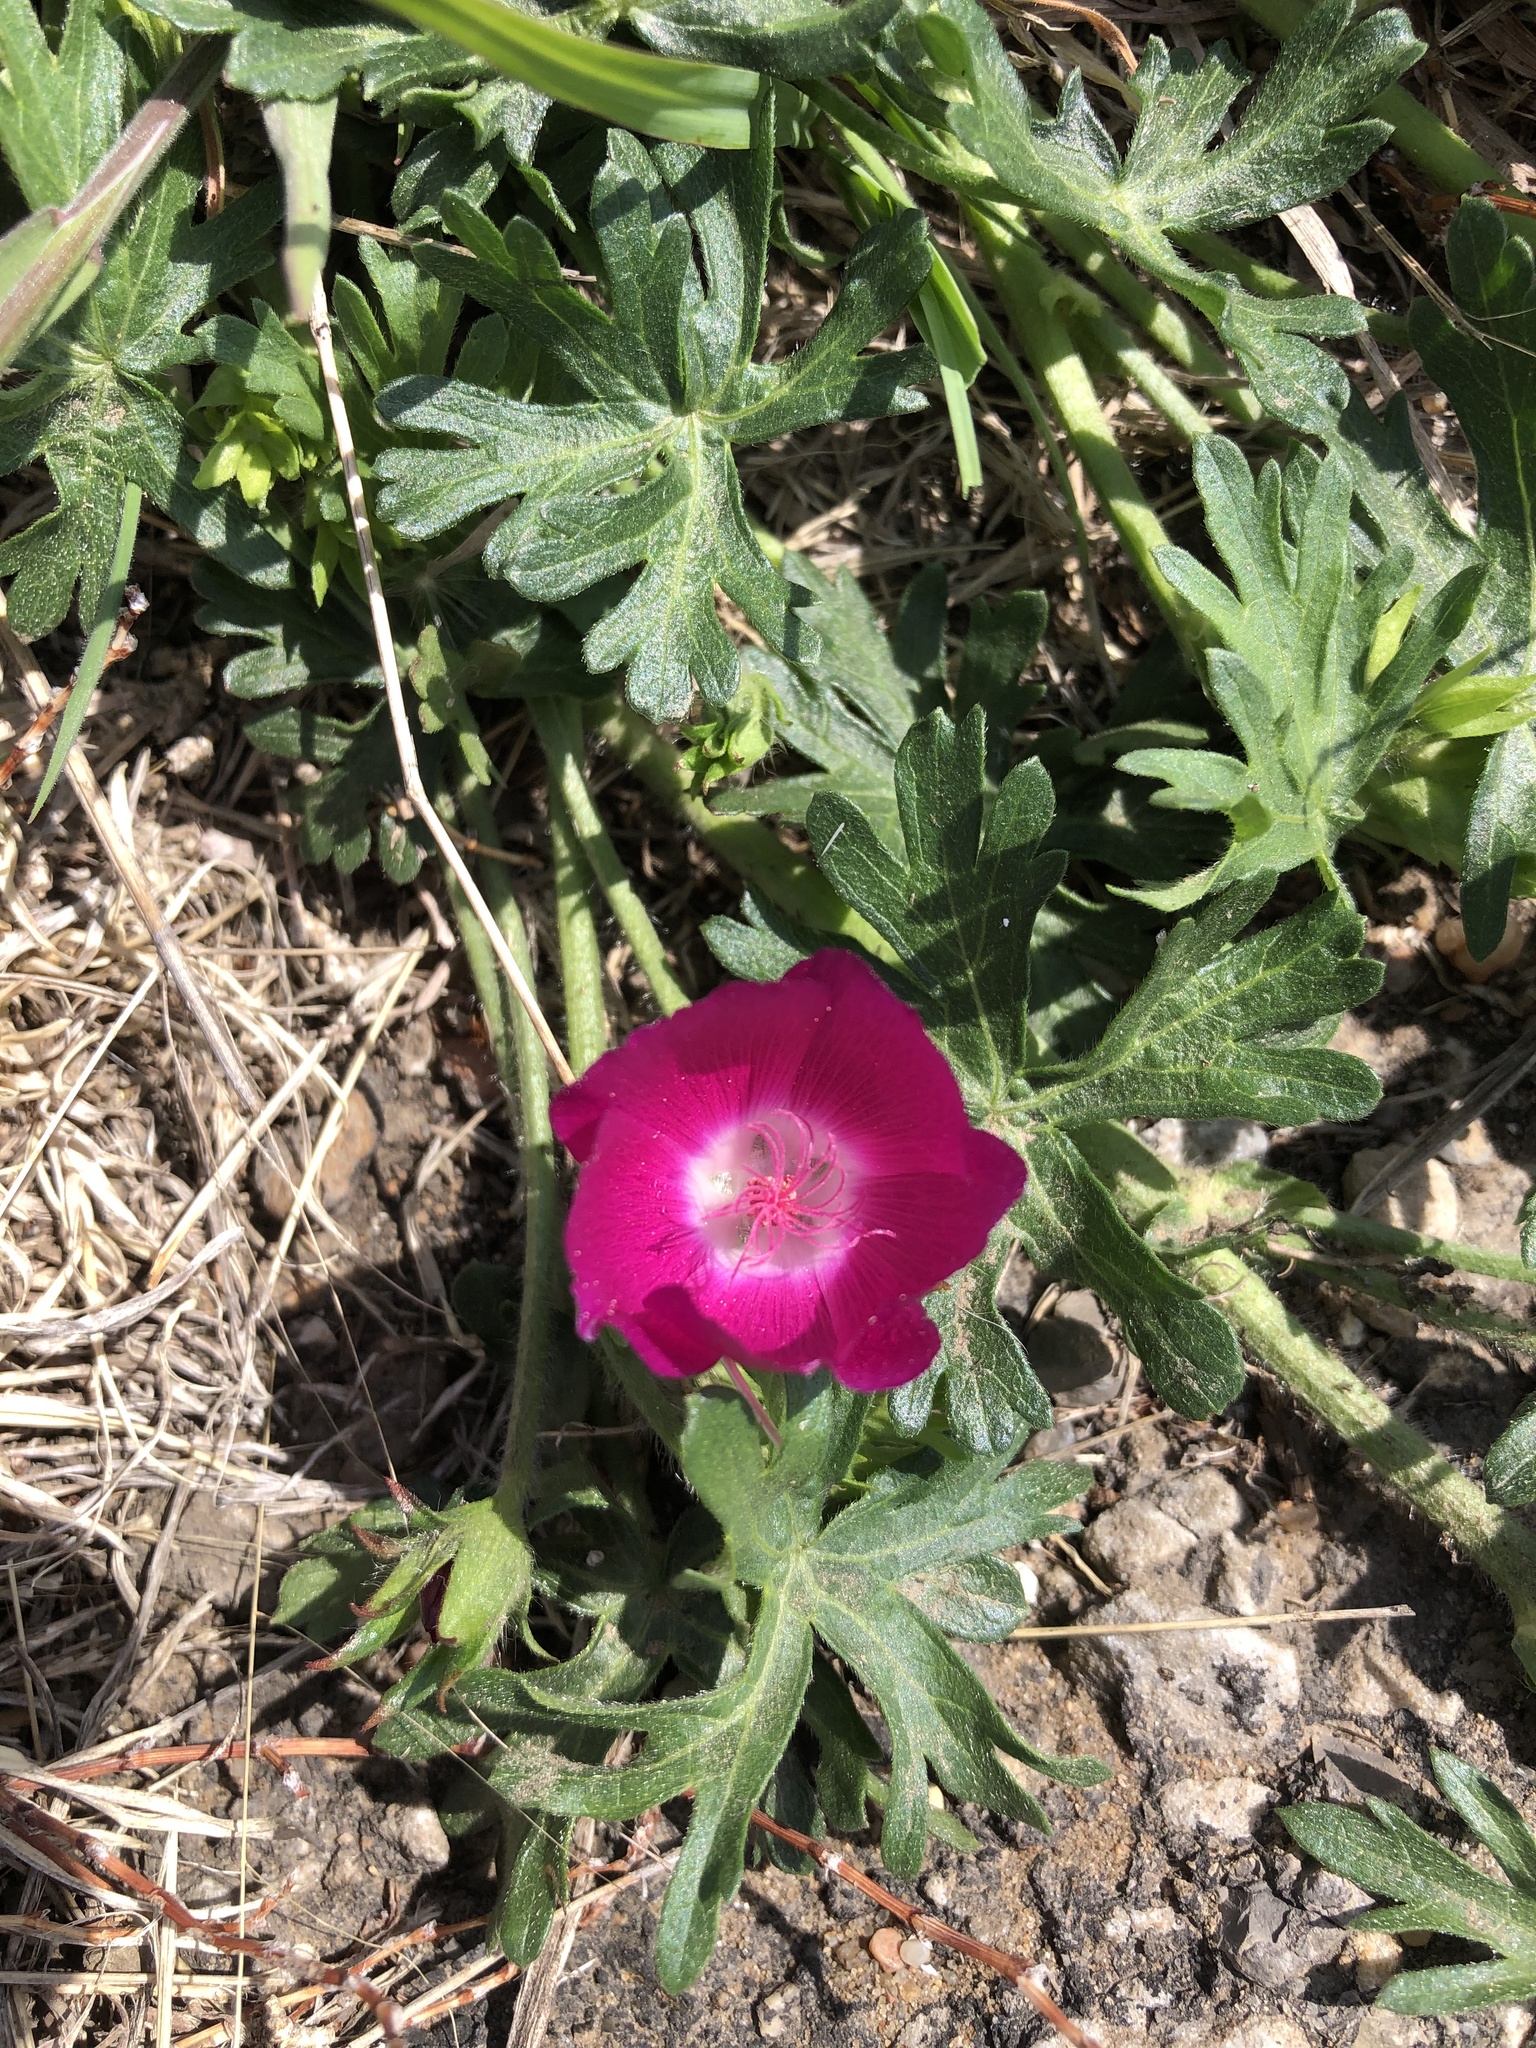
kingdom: Plantae
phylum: Tracheophyta
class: Magnoliopsida
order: Malvales
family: Malvaceae
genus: Callirhoe
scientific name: Callirhoe involucrata
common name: Purple poppy-mallow
